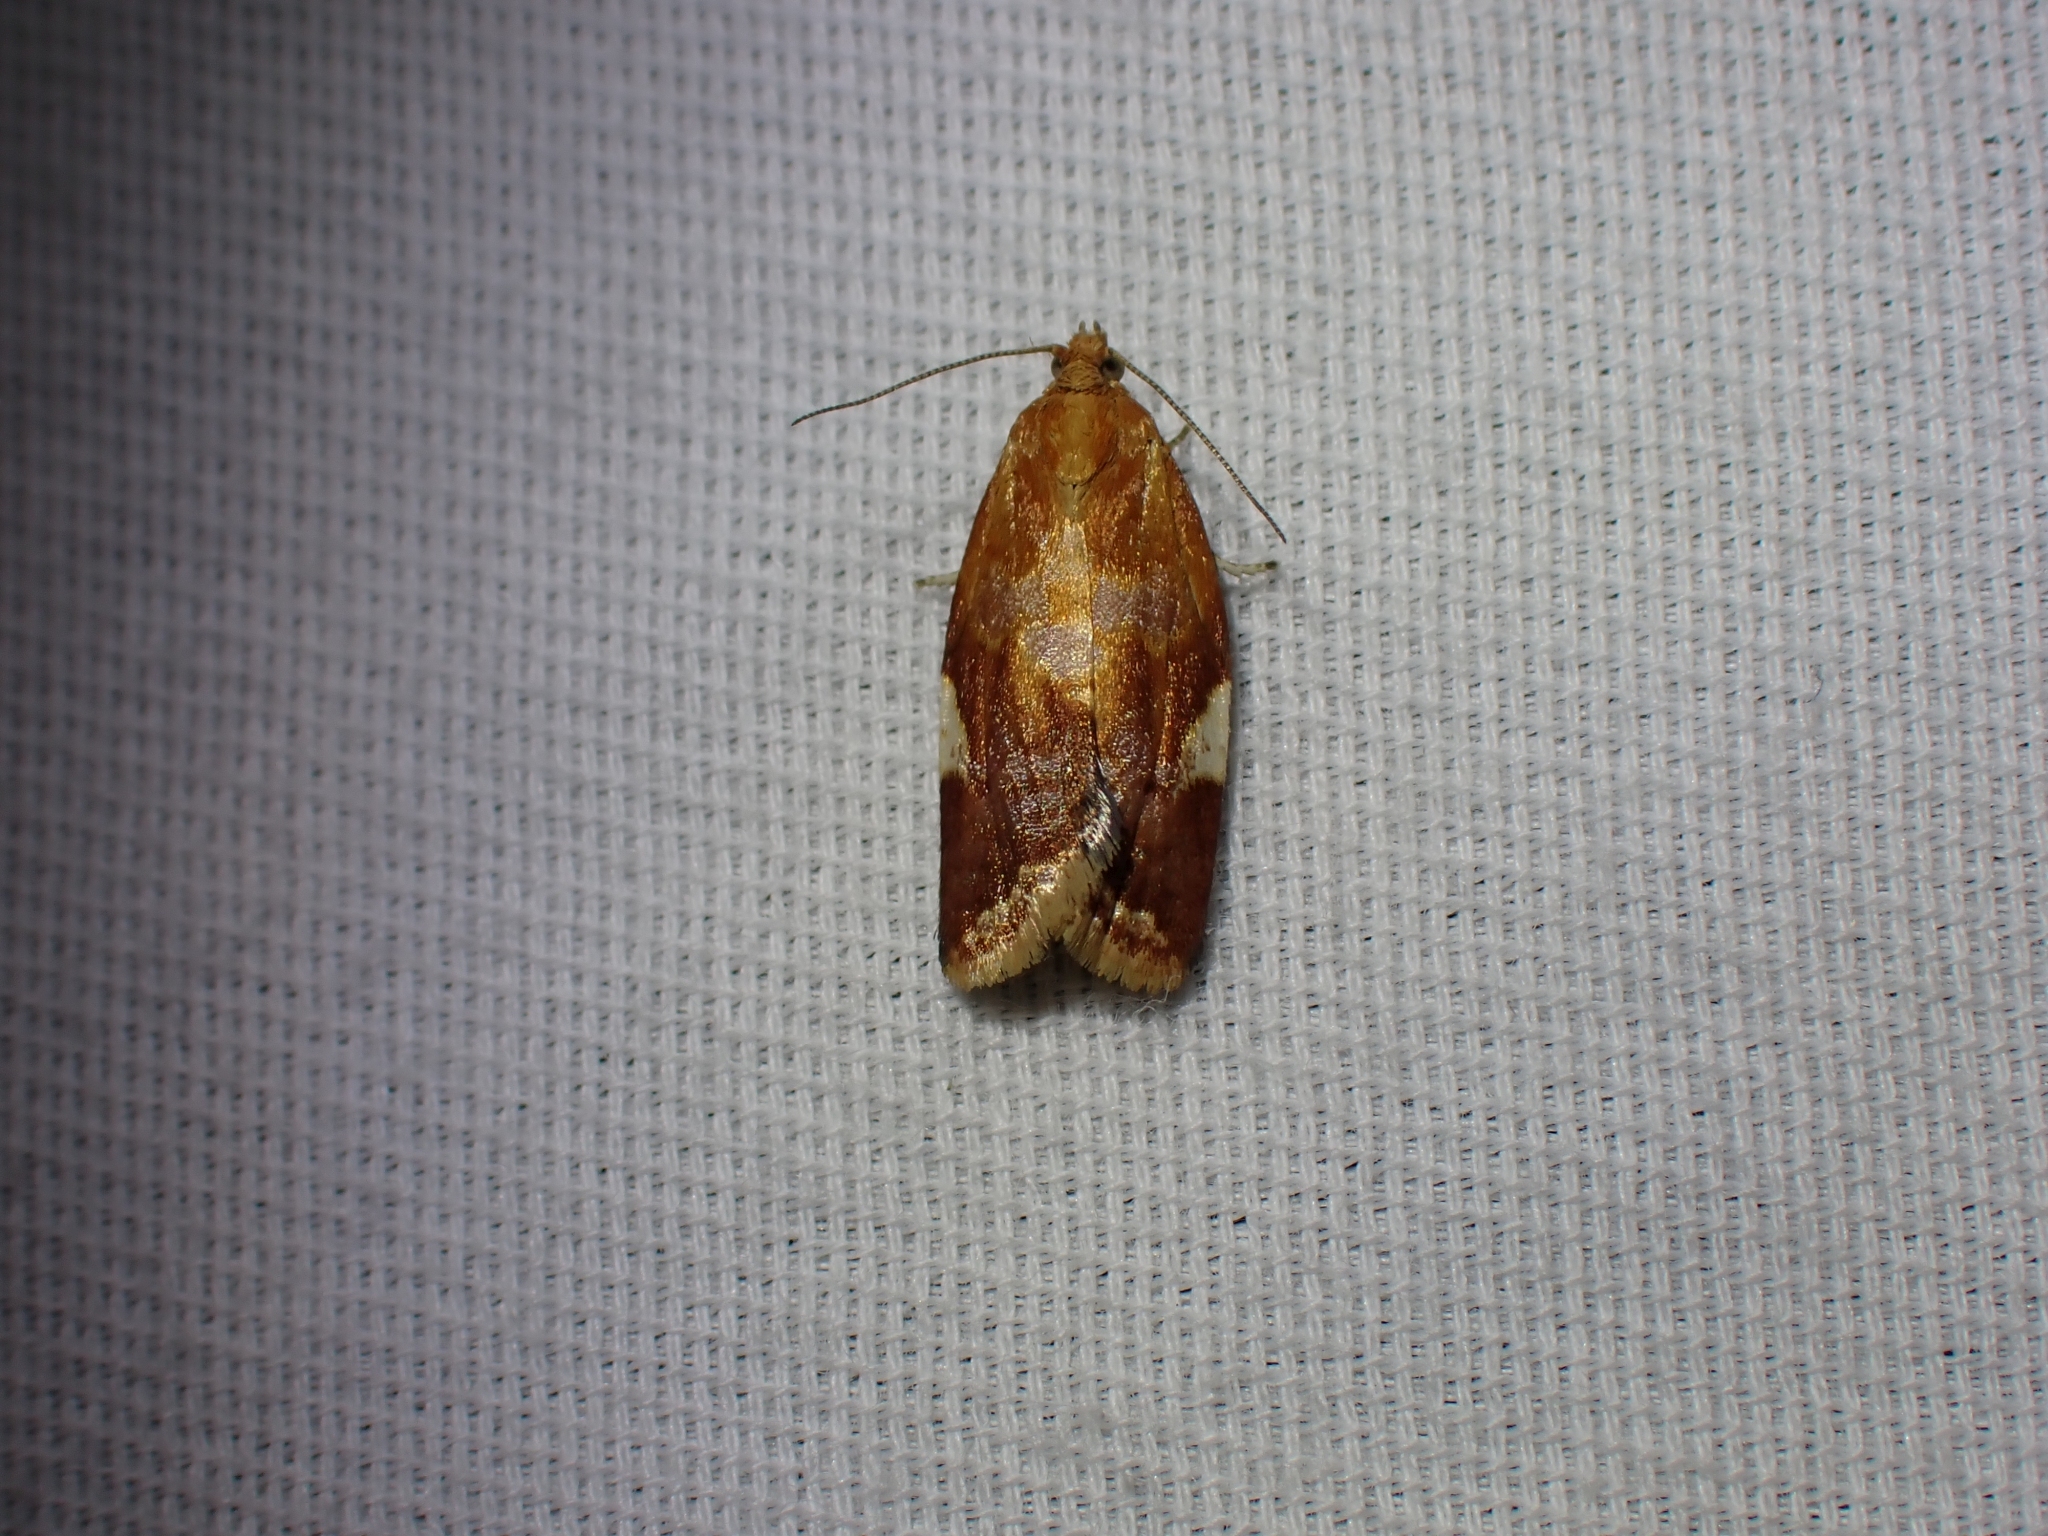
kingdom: Animalia
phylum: Arthropoda
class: Insecta
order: Lepidoptera
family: Tortricidae
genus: Clepsis
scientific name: Clepsis persicana
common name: White triangle tortrix
